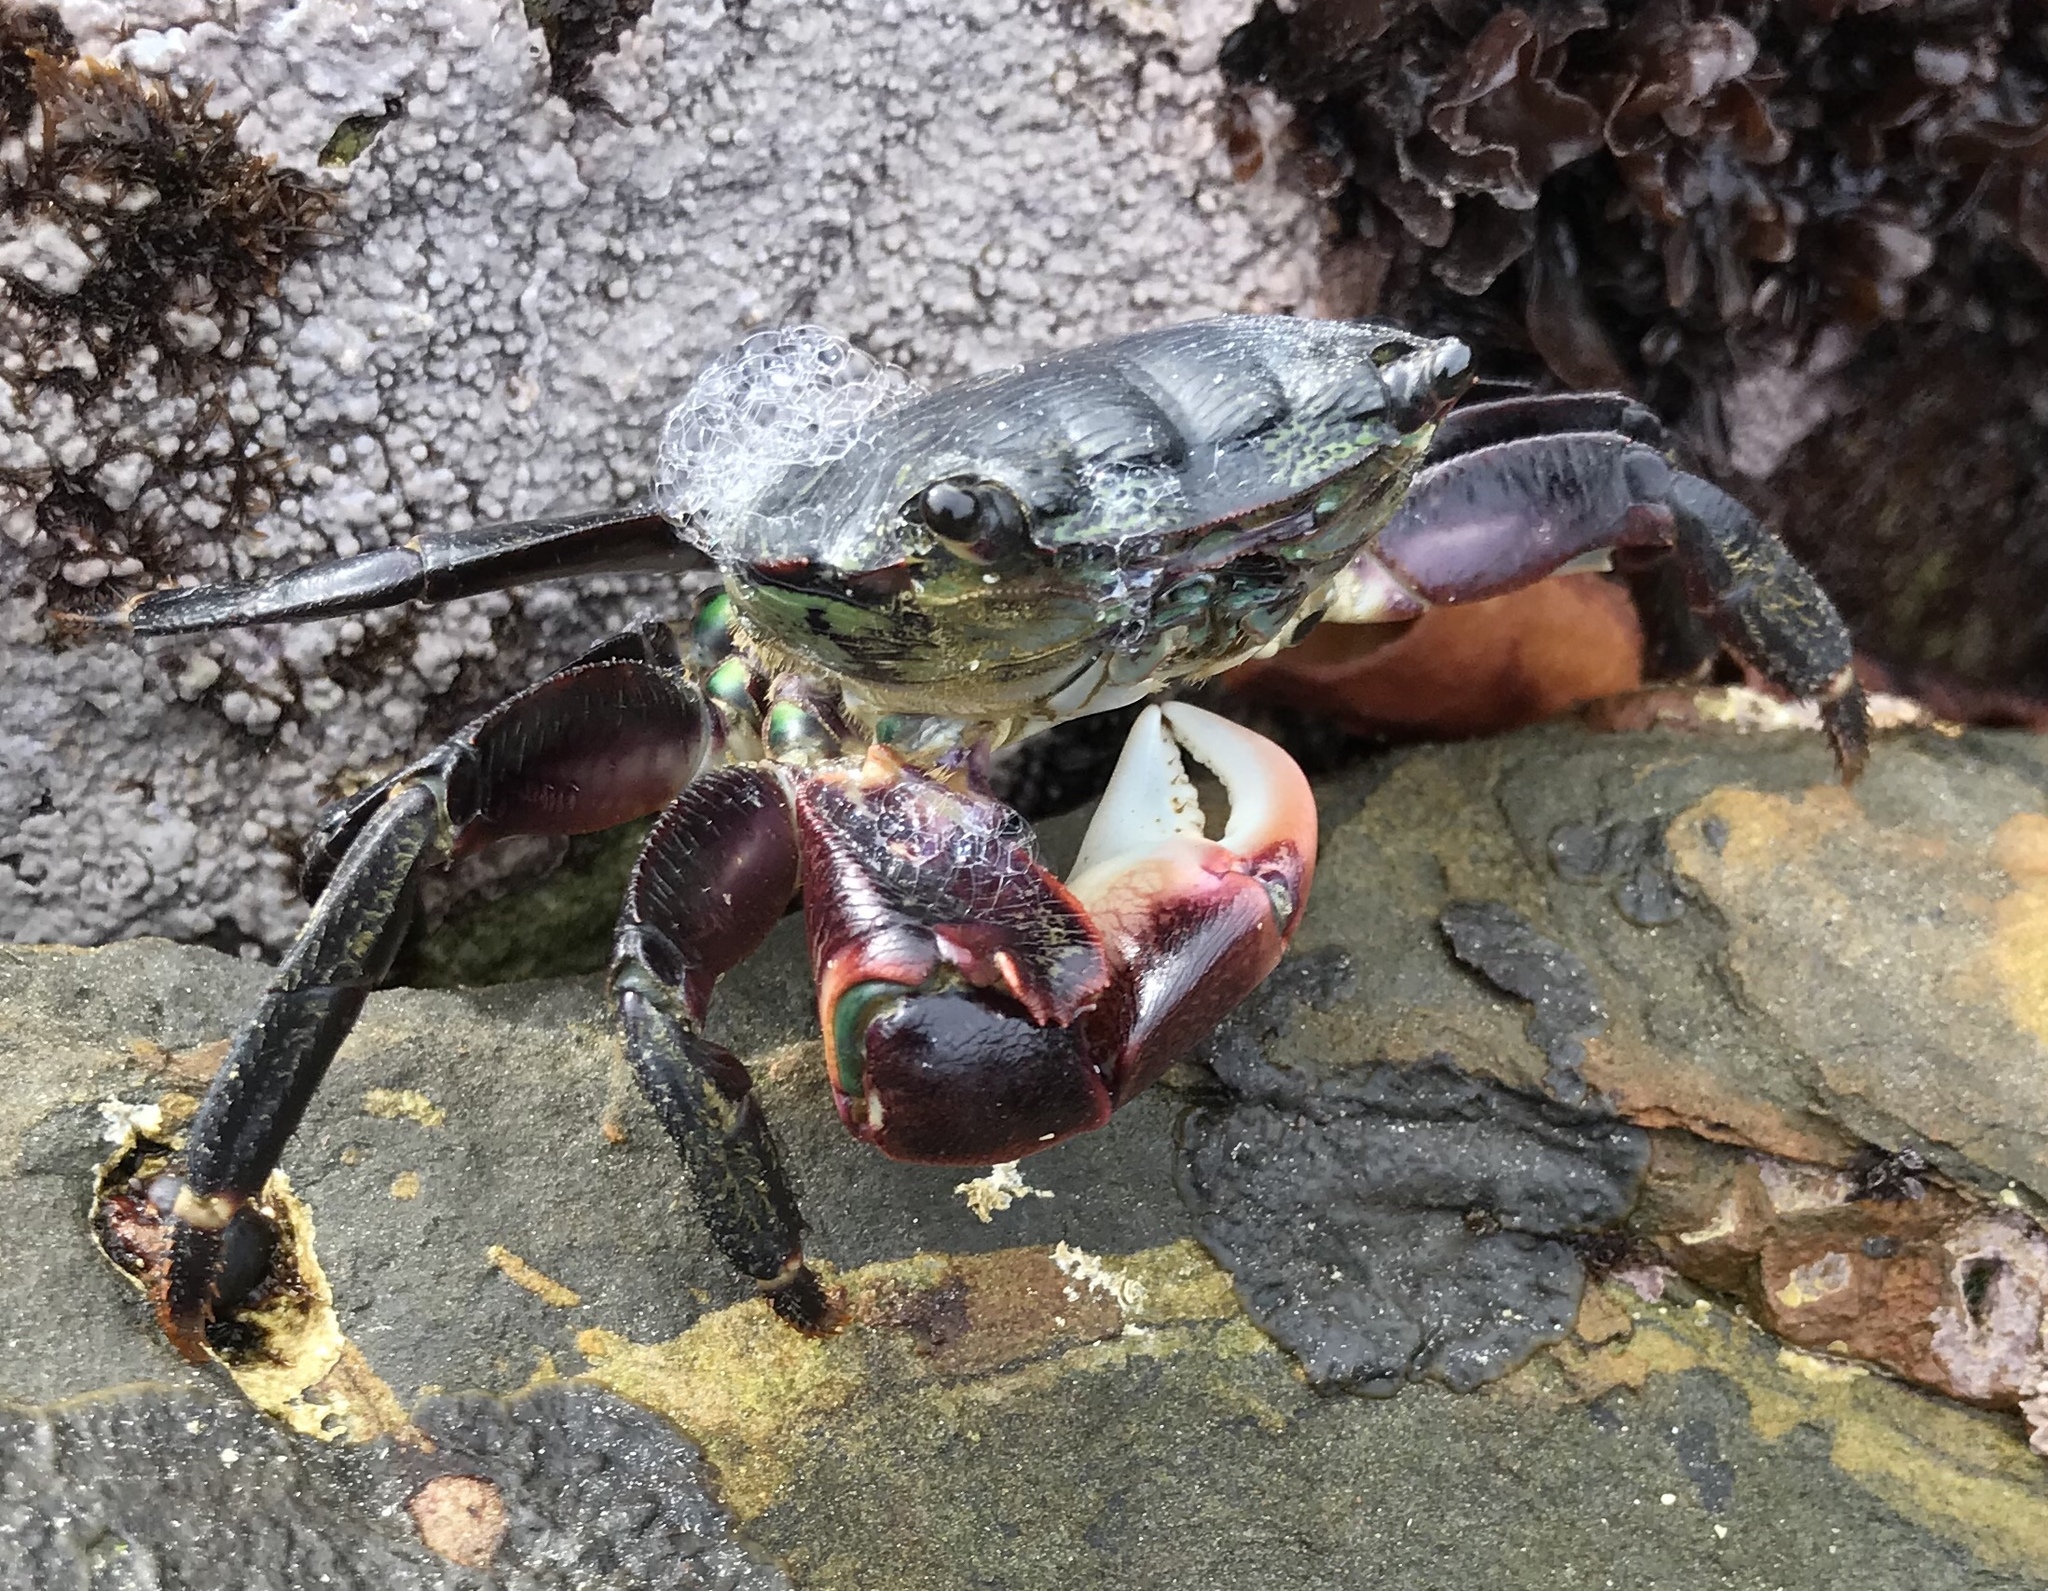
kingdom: Animalia
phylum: Arthropoda
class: Malacostraca
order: Decapoda
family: Grapsidae
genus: Pachygrapsus
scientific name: Pachygrapsus crassipes
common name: Striped shore crab
